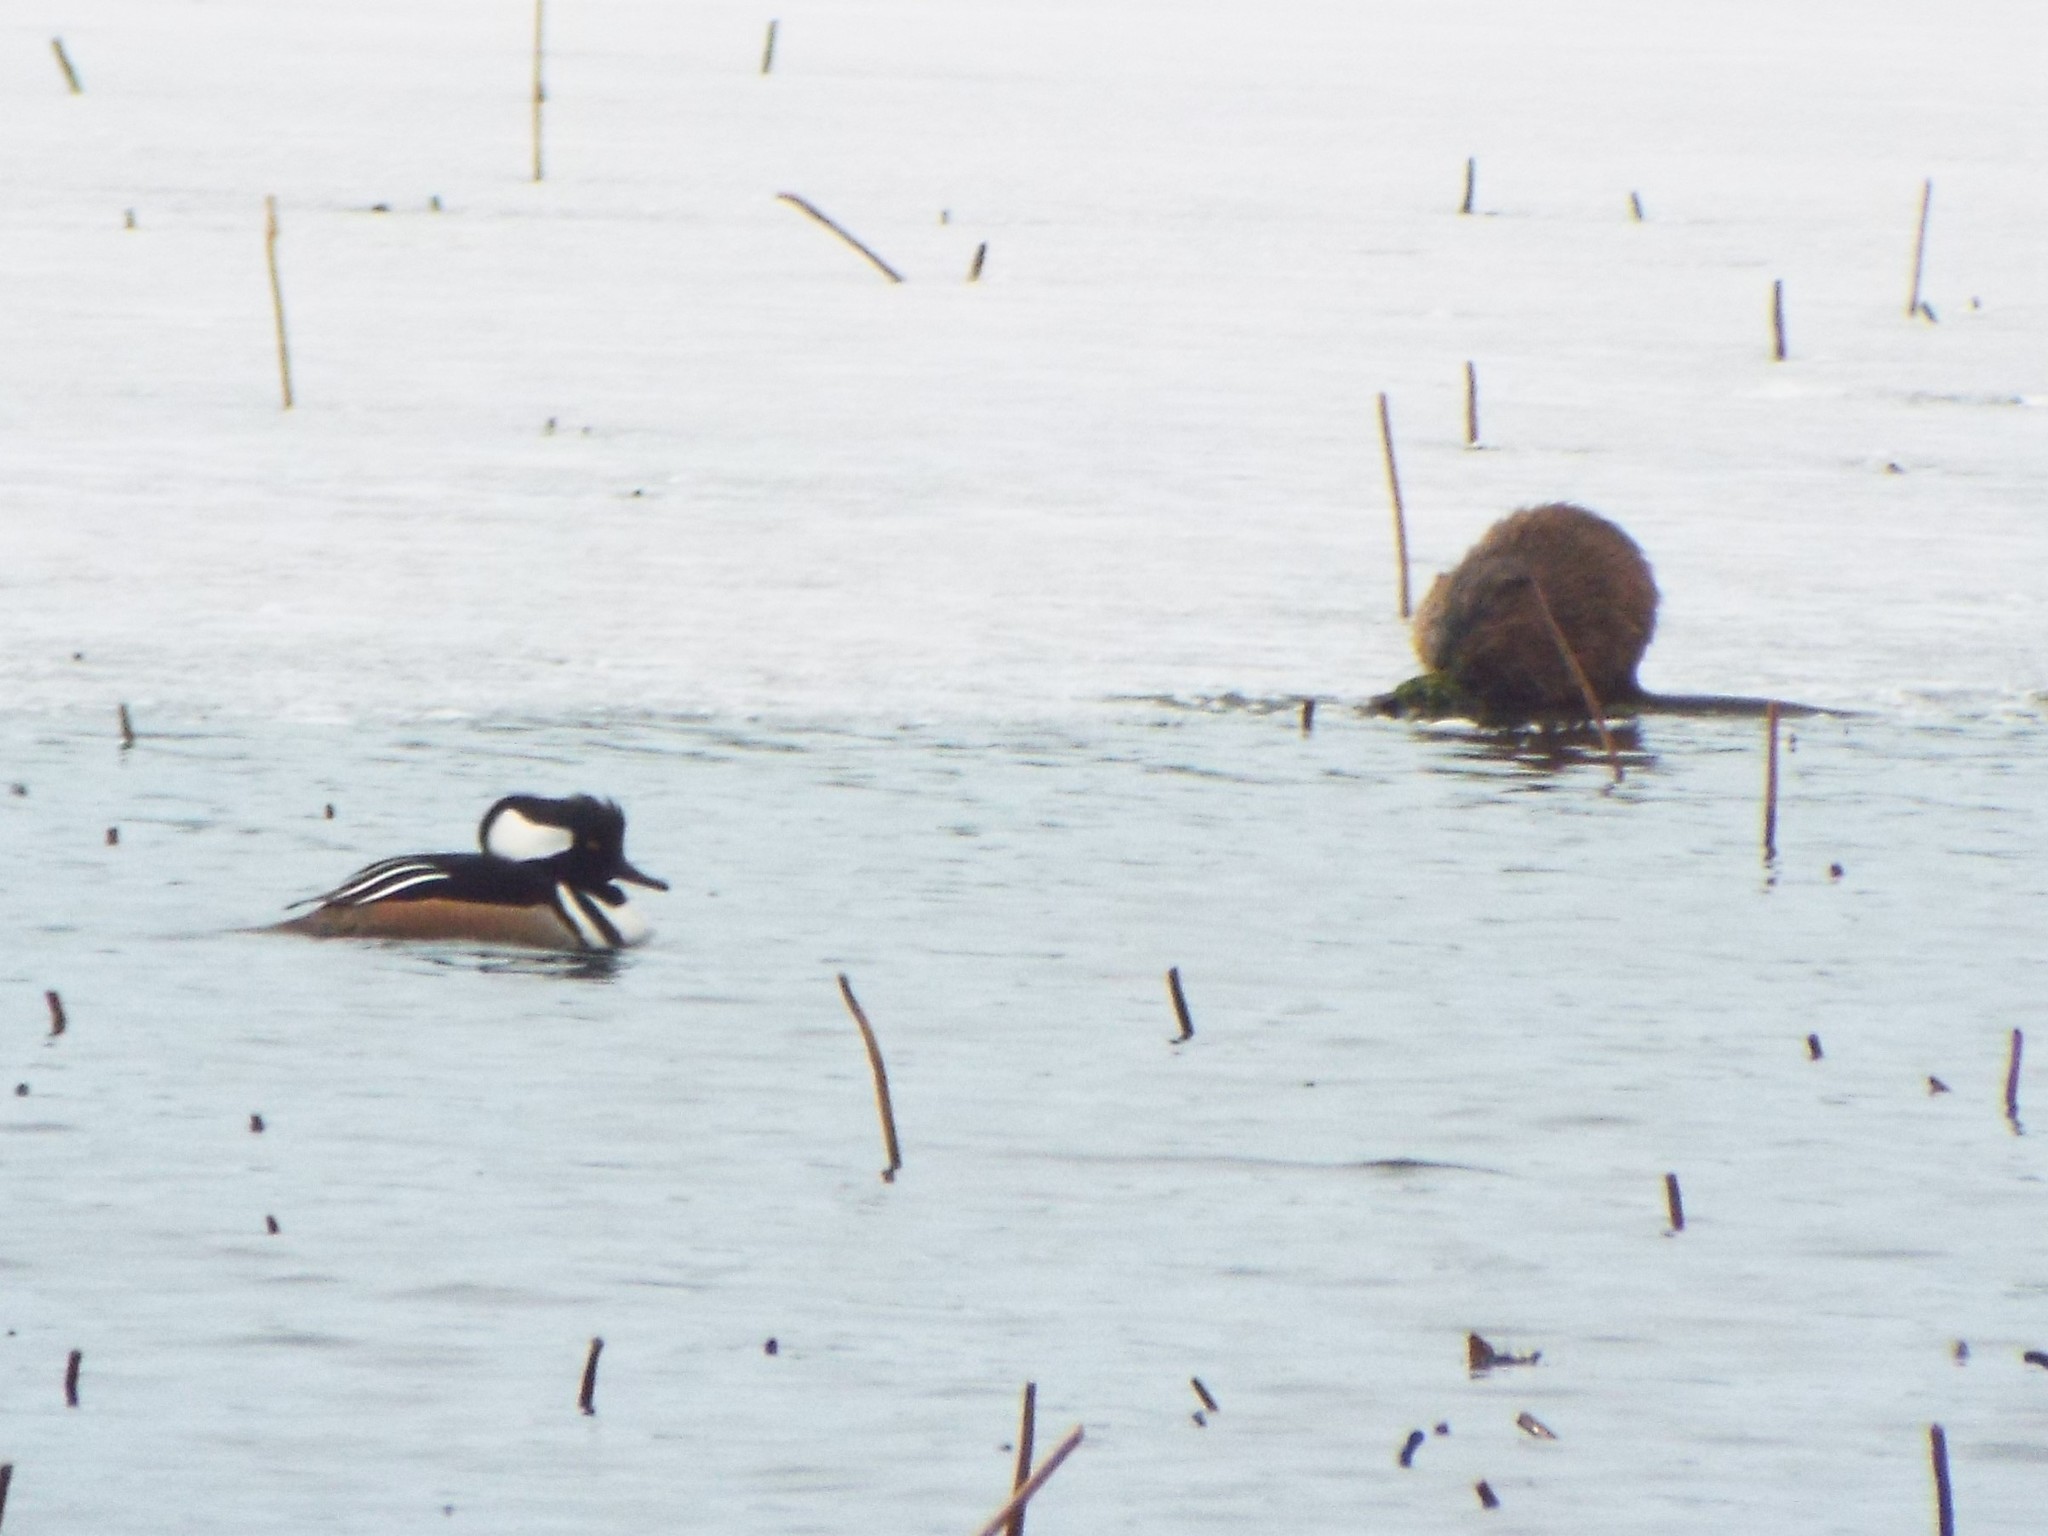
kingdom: Animalia
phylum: Chordata
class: Mammalia
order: Rodentia
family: Cricetidae
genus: Ondatra
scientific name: Ondatra zibethicus
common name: Muskrat
